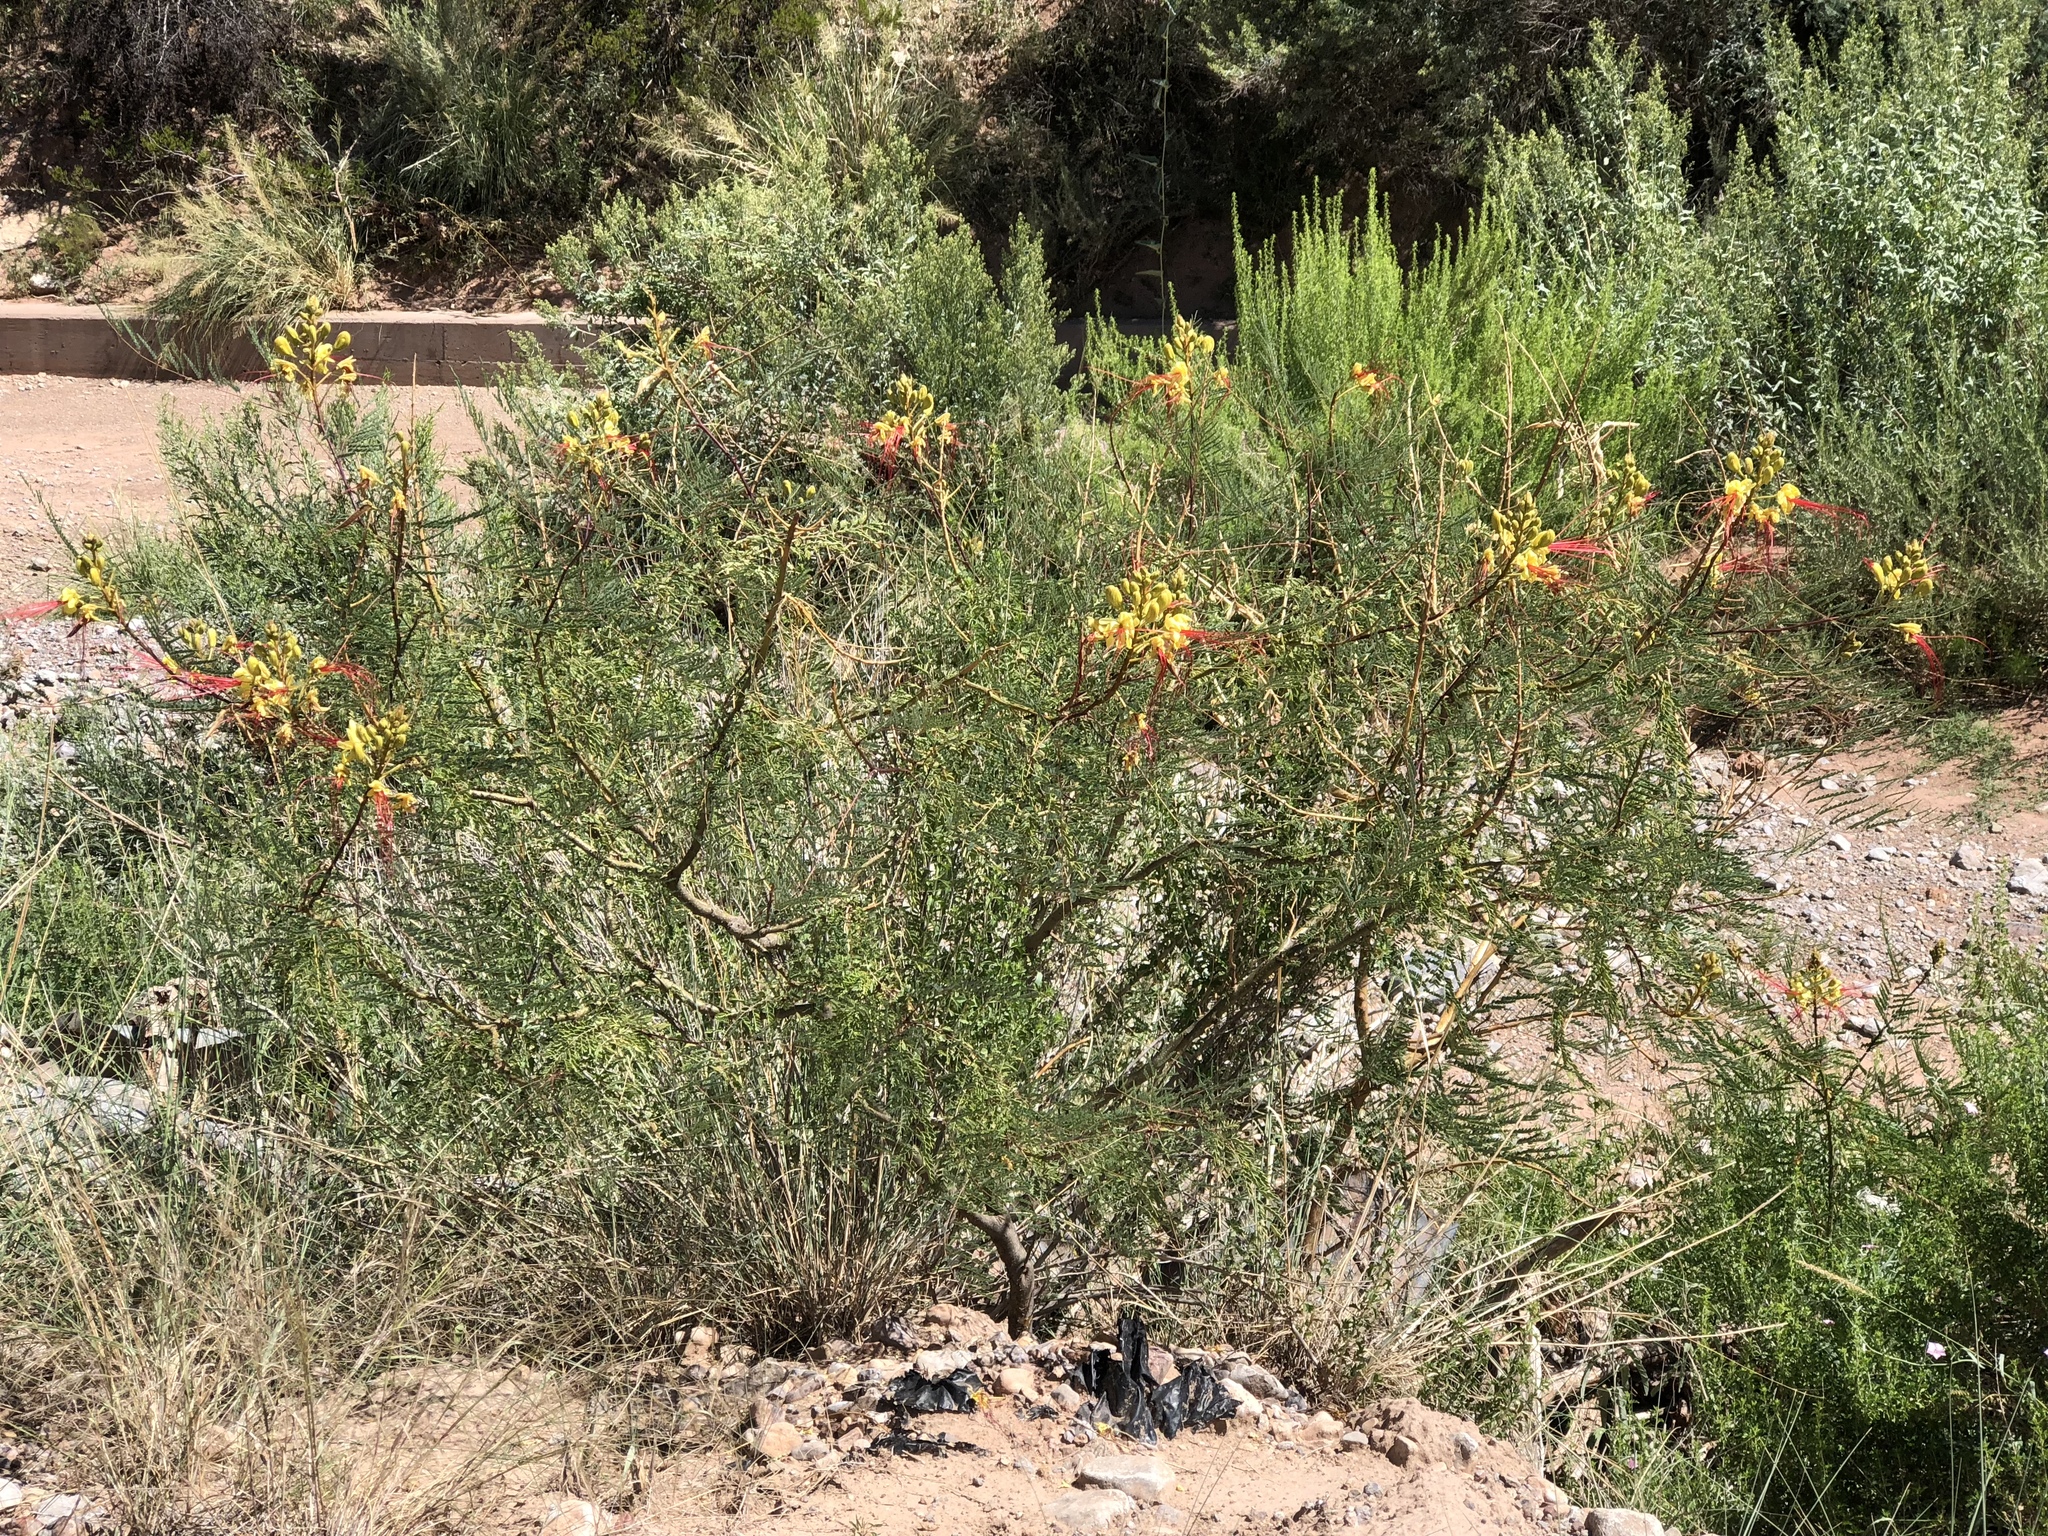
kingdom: Plantae
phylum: Tracheophyta
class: Magnoliopsida
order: Fabales
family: Fabaceae
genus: Erythrostemon
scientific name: Erythrostemon gilliesii
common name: Bird-of-paradise shrub
